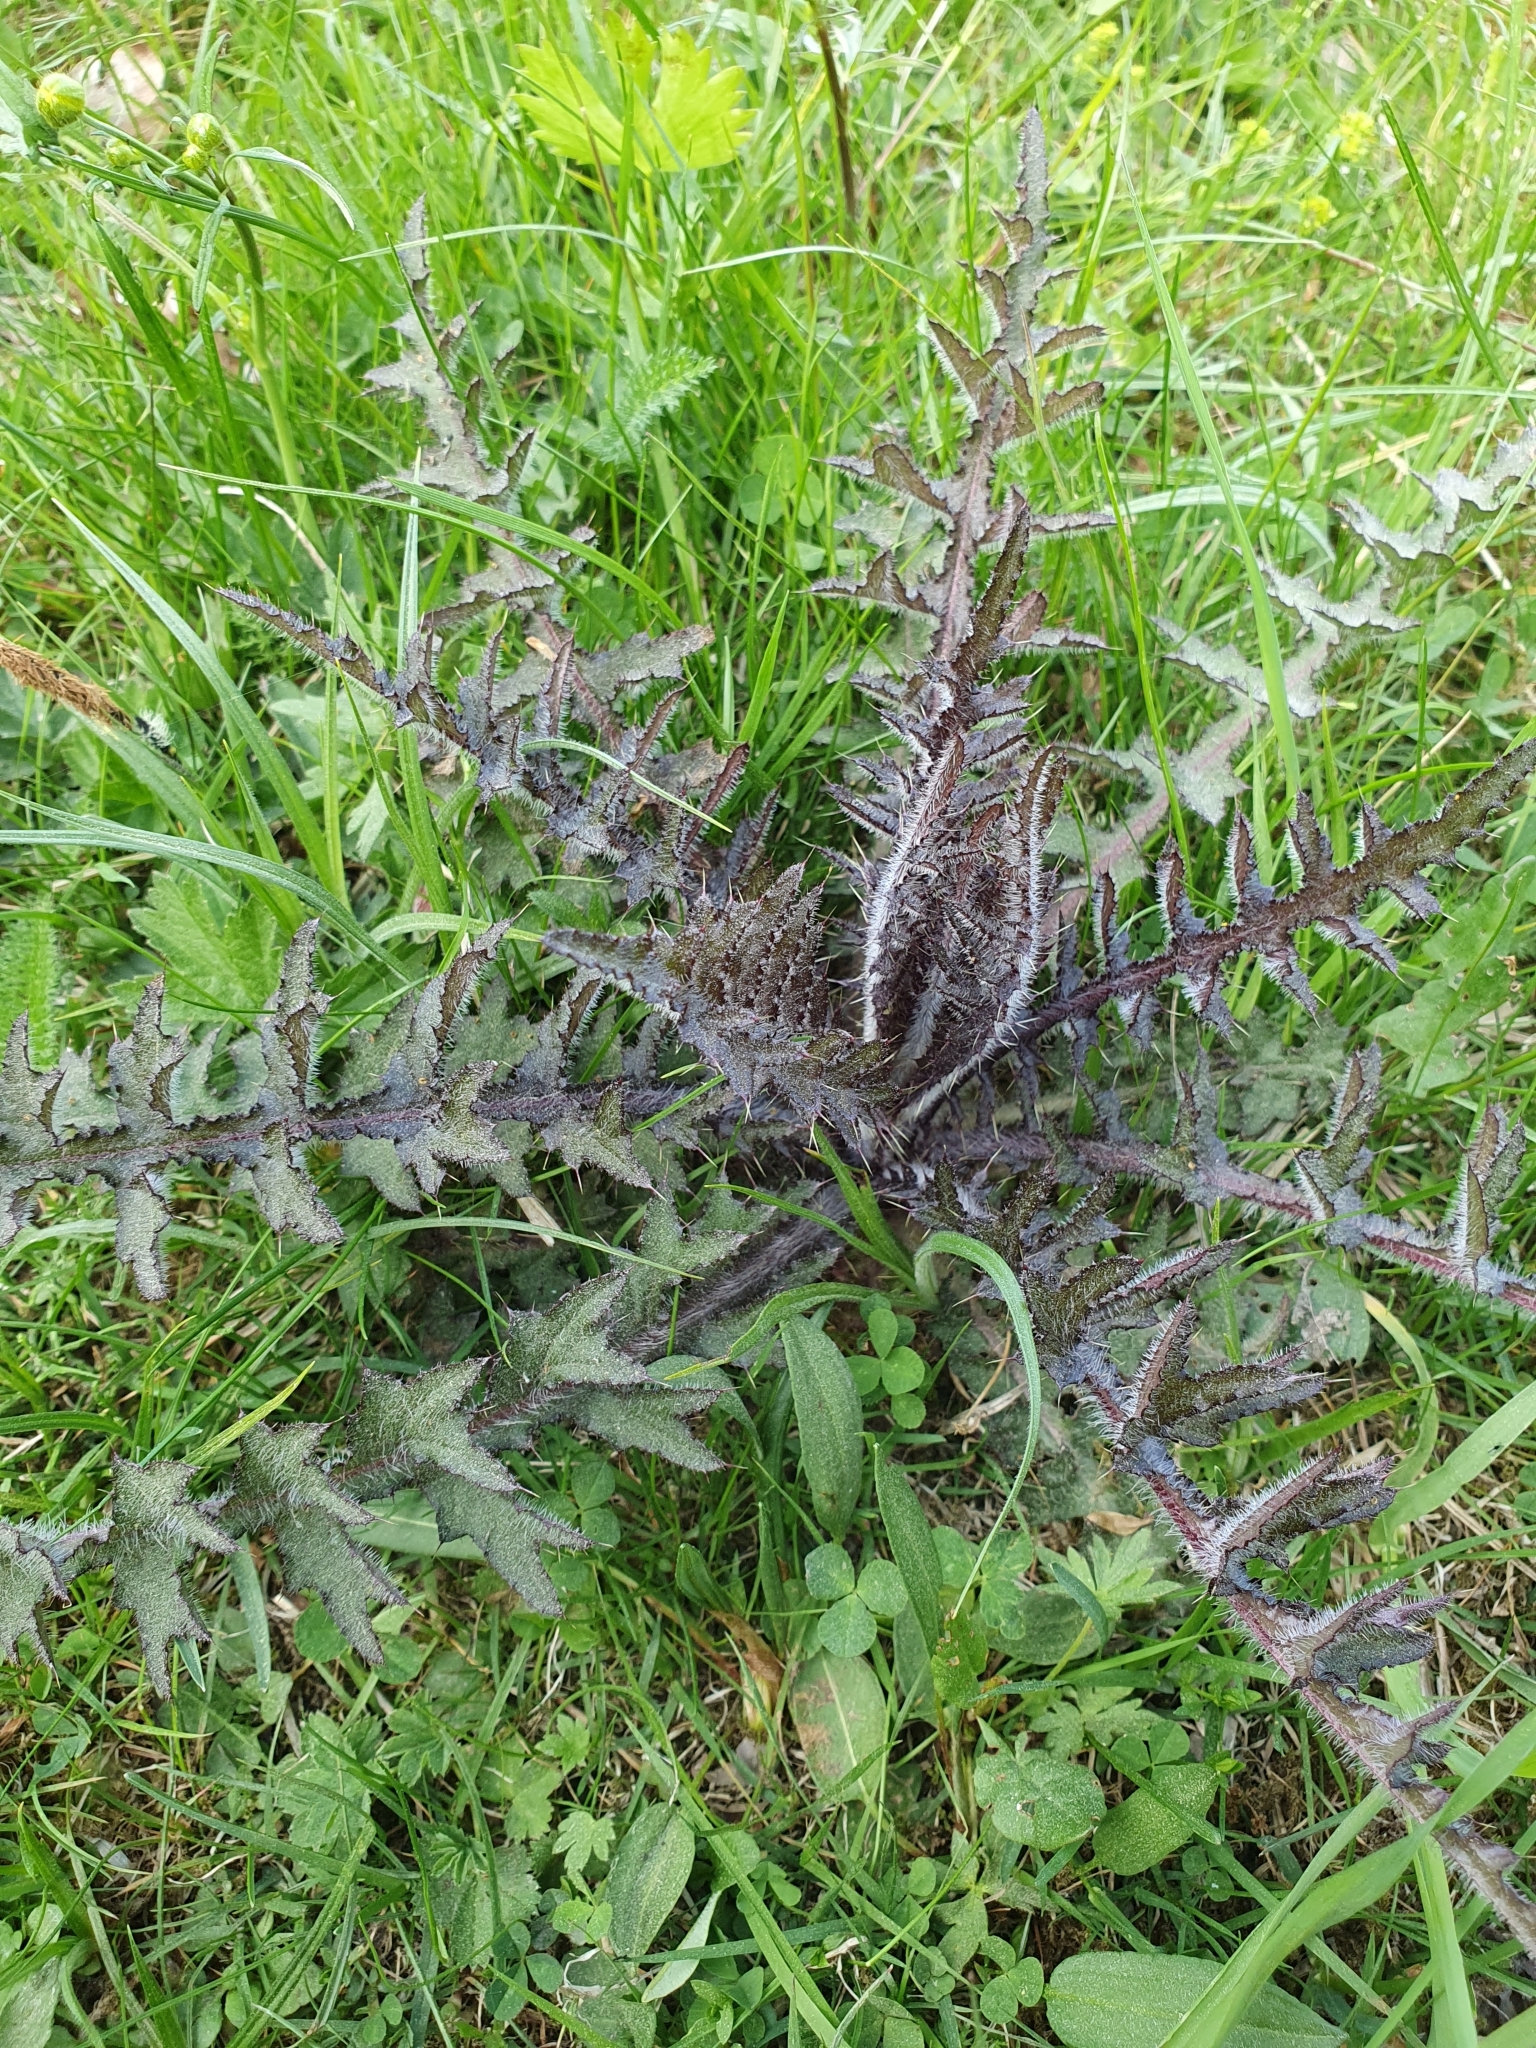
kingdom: Plantae
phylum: Tracheophyta
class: Magnoliopsida
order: Asterales
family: Asteraceae
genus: Cirsium
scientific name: Cirsium palustre
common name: Marsh thistle
